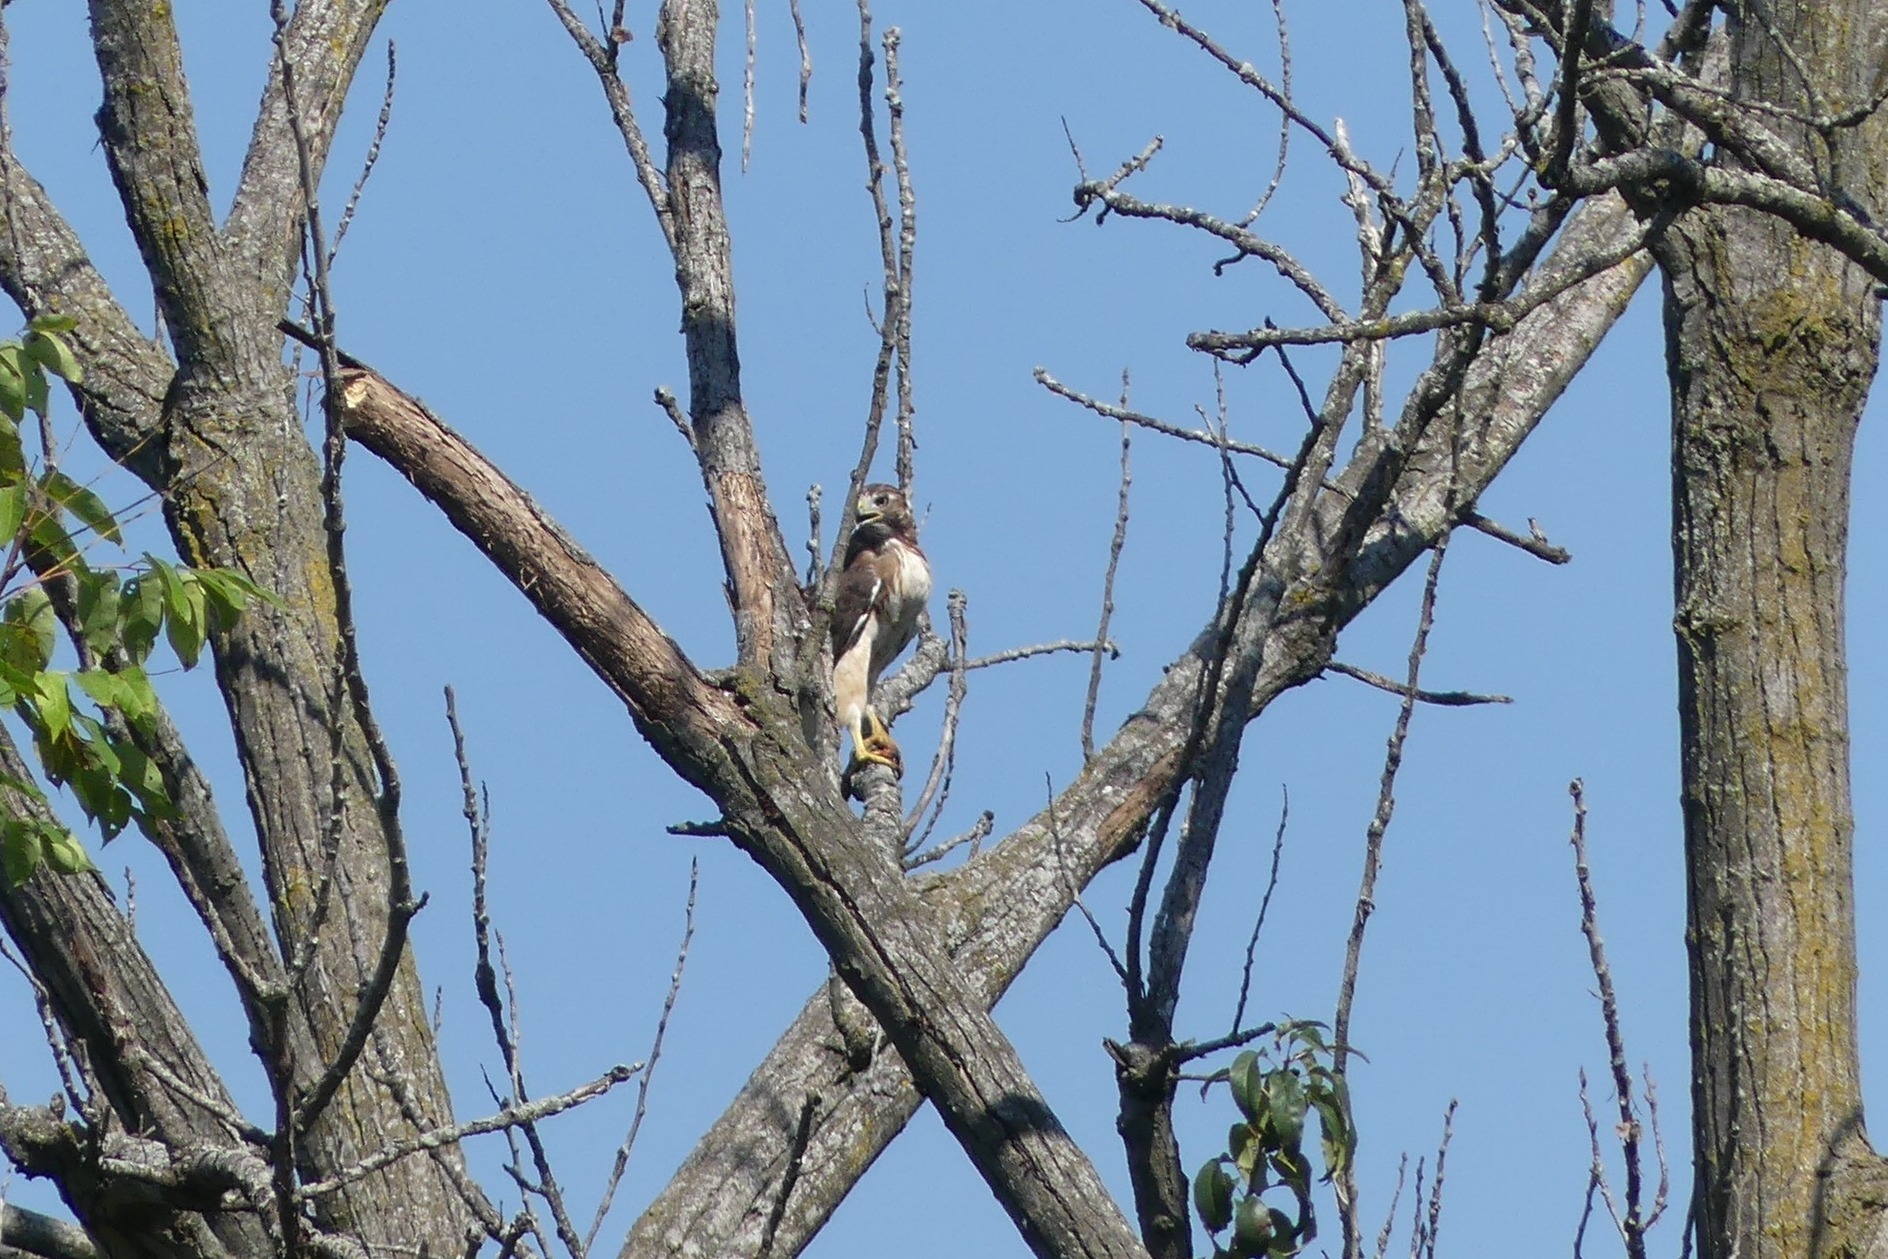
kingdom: Animalia
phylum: Chordata
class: Aves
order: Accipitriformes
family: Accipitridae
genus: Buteo
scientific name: Buteo jamaicensis
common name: Red-tailed hawk
